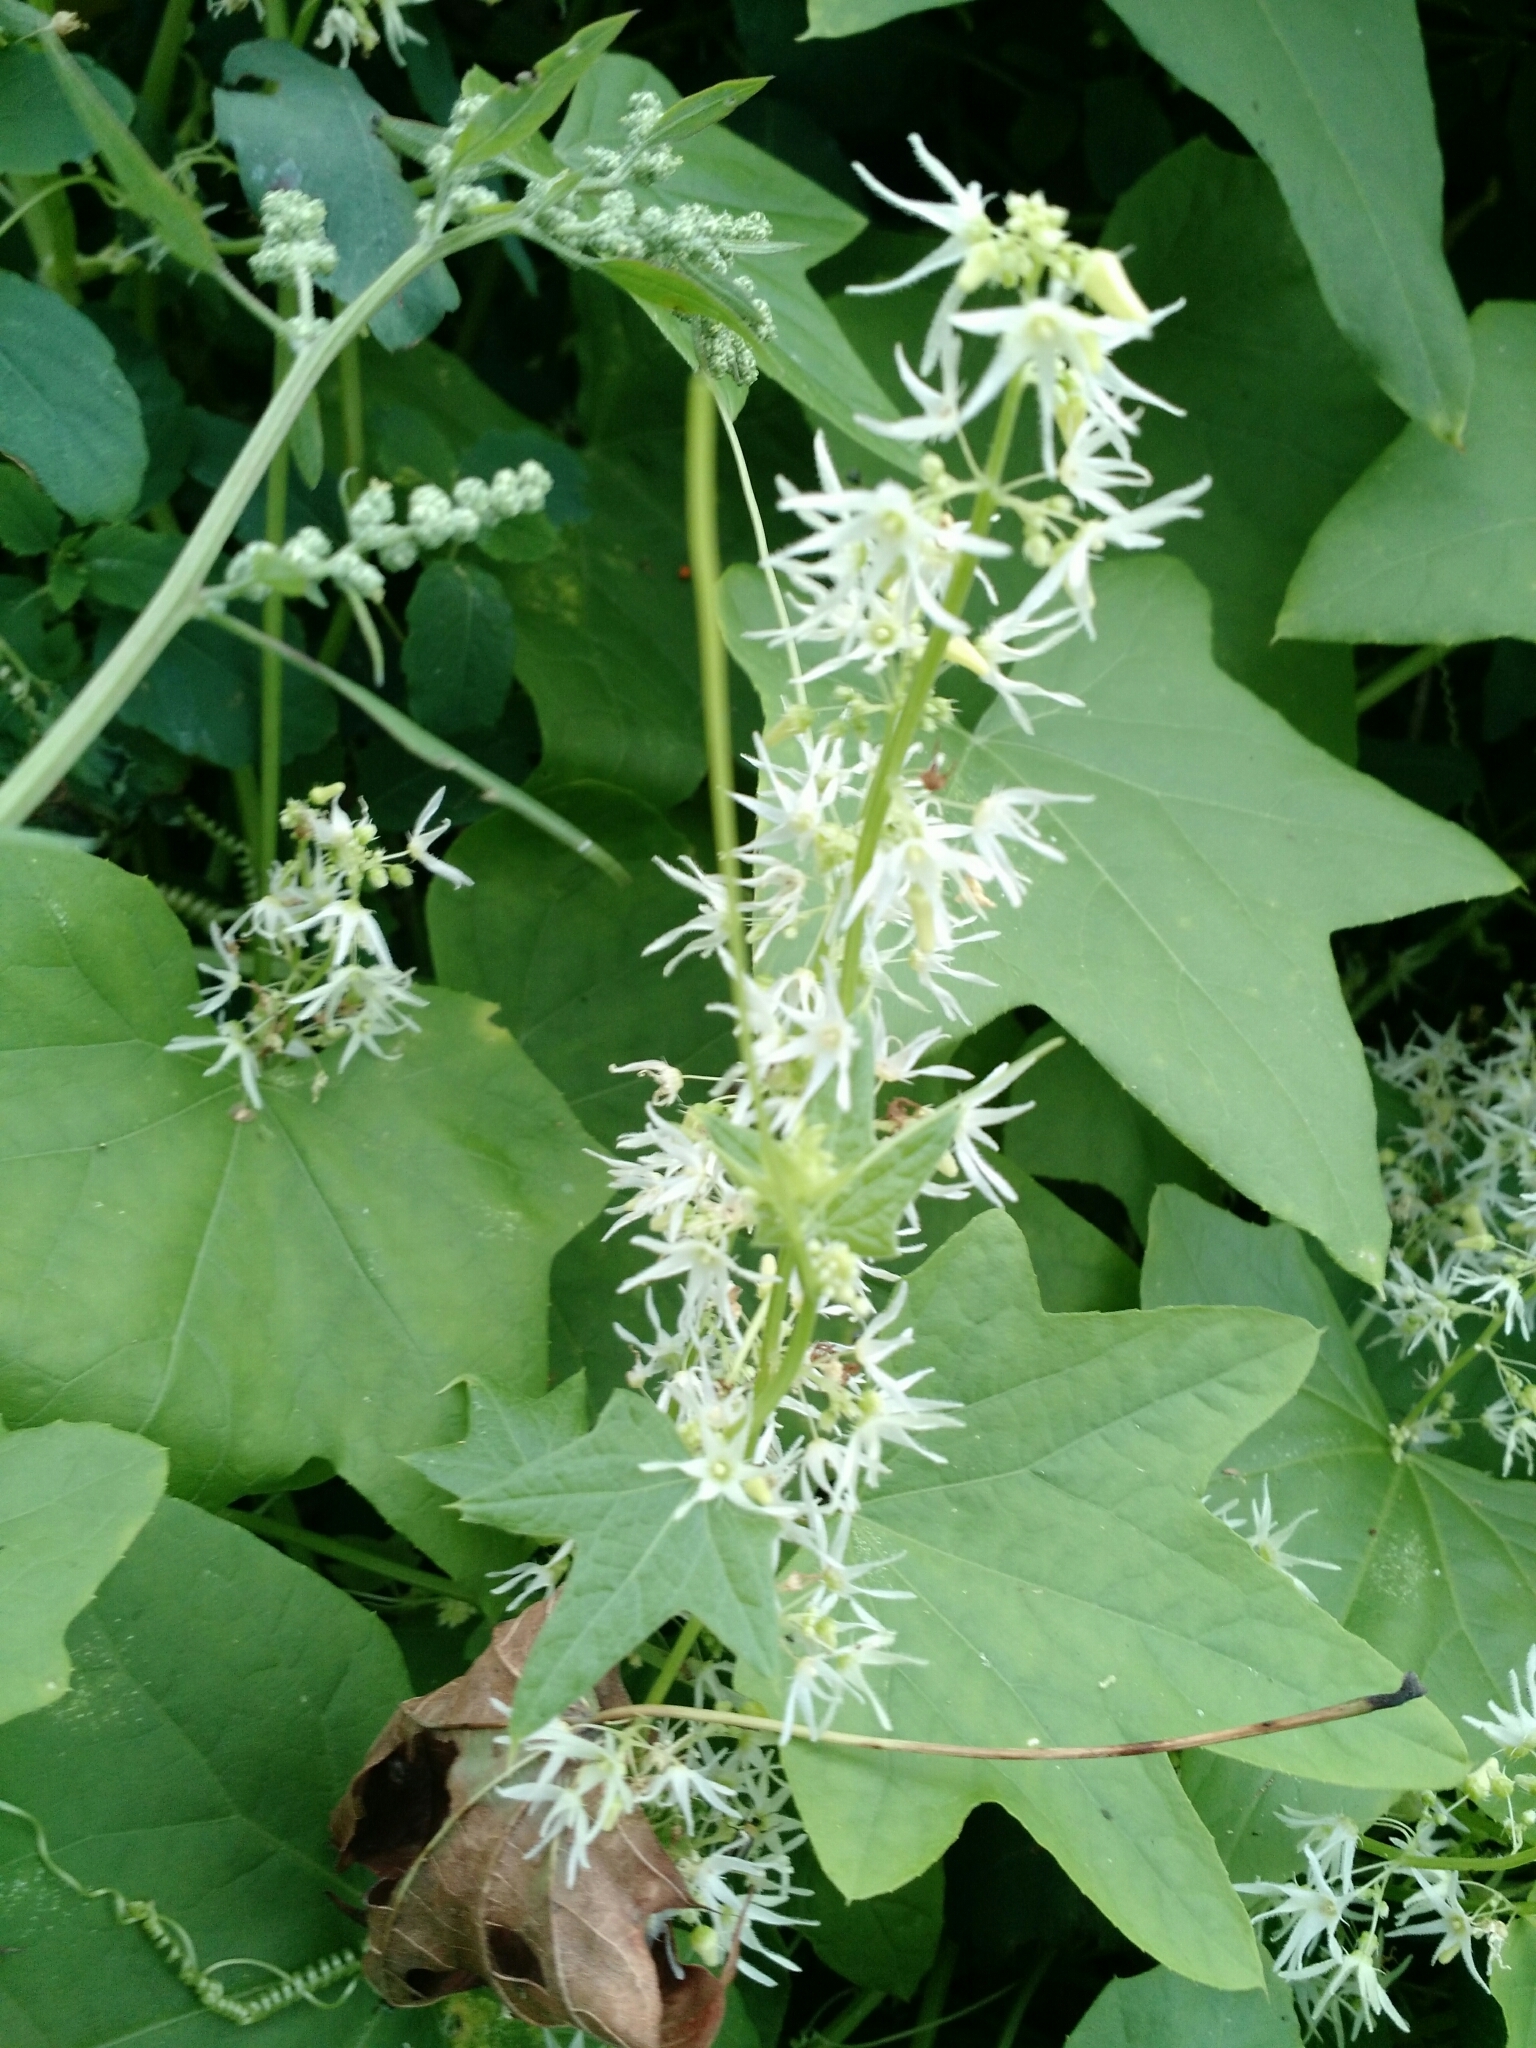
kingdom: Plantae
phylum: Tracheophyta
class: Magnoliopsida
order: Cucurbitales
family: Cucurbitaceae
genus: Echinocystis
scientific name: Echinocystis lobata
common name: Wild cucumber
